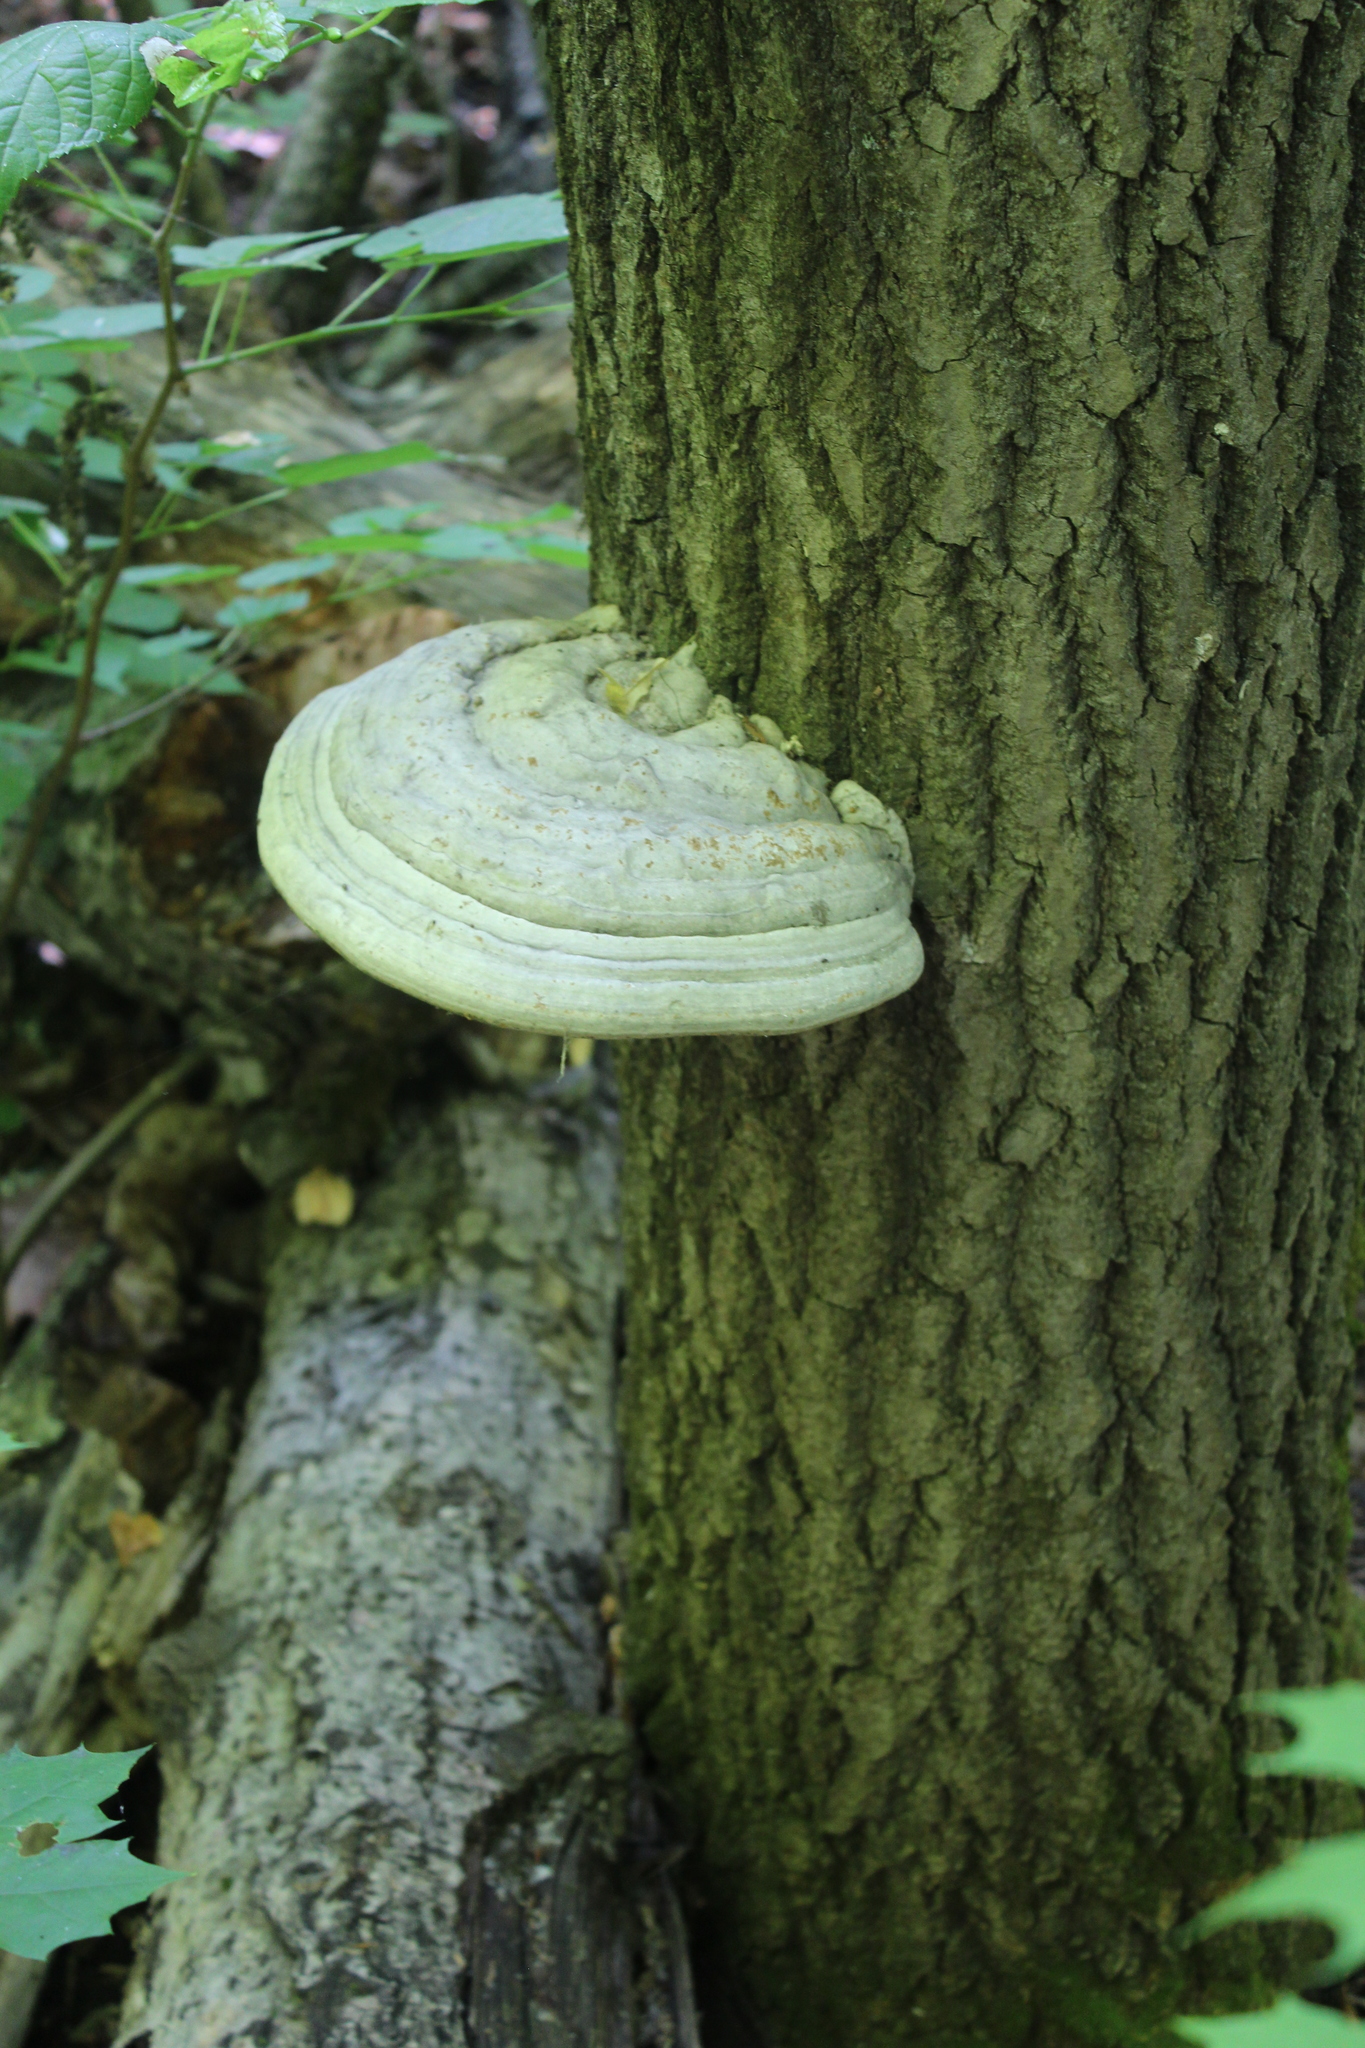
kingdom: Fungi
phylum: Basidiomycota
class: Agaricomycetes
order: Polyporales
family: Polyporaceae
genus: Fomes
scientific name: Fomes fomentarius
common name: Hoof fungus
